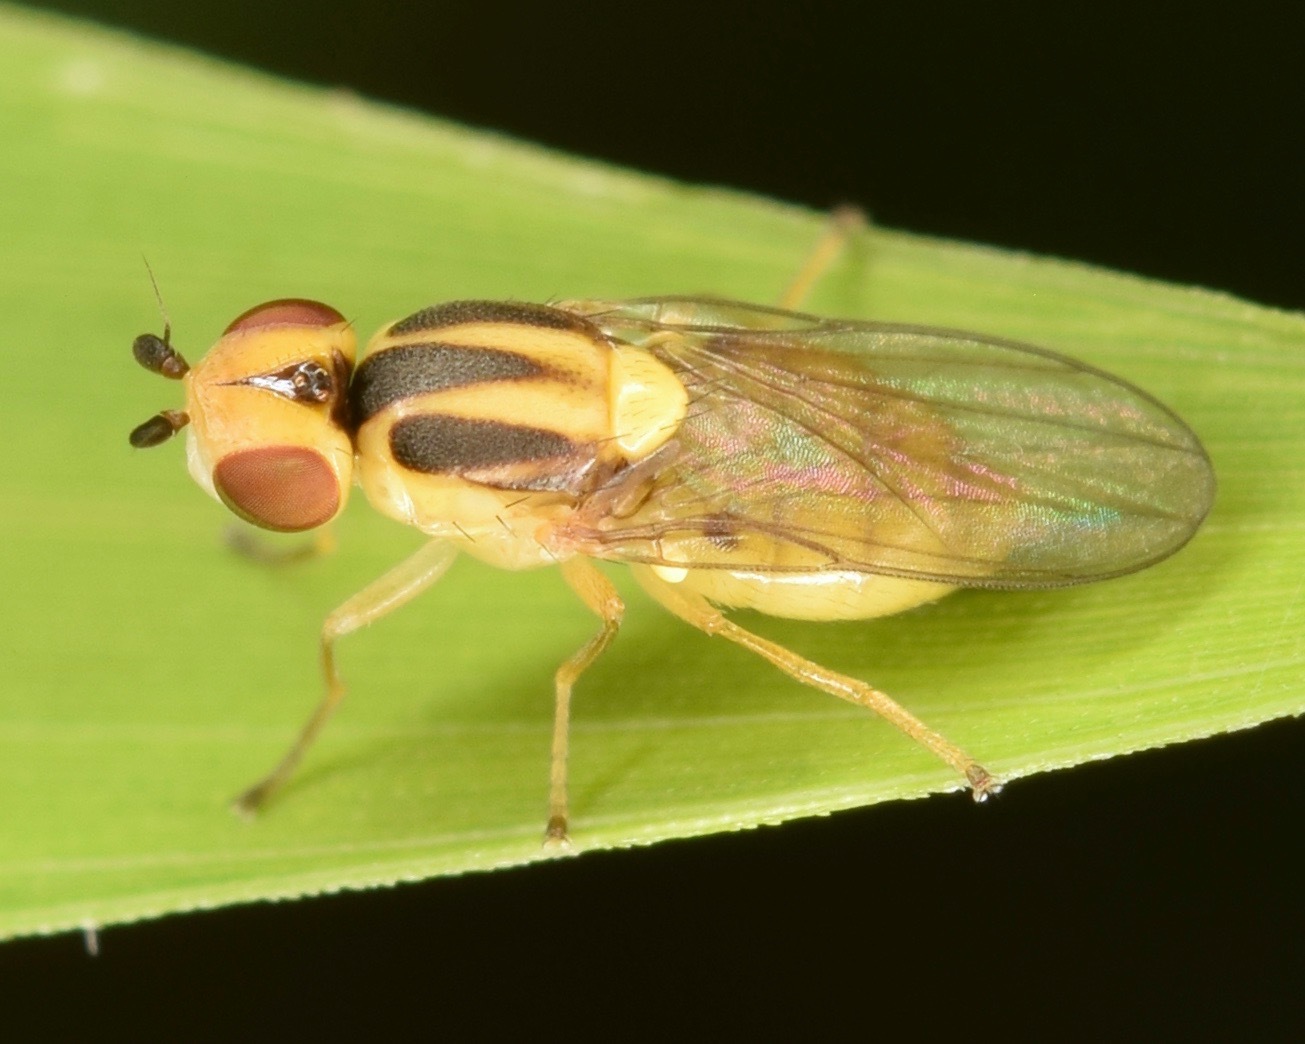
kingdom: Animalia
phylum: Arthropoda
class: Insecta
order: Diptera
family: Chloropidae
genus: Chlorops
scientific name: Chlorops sulphureus
